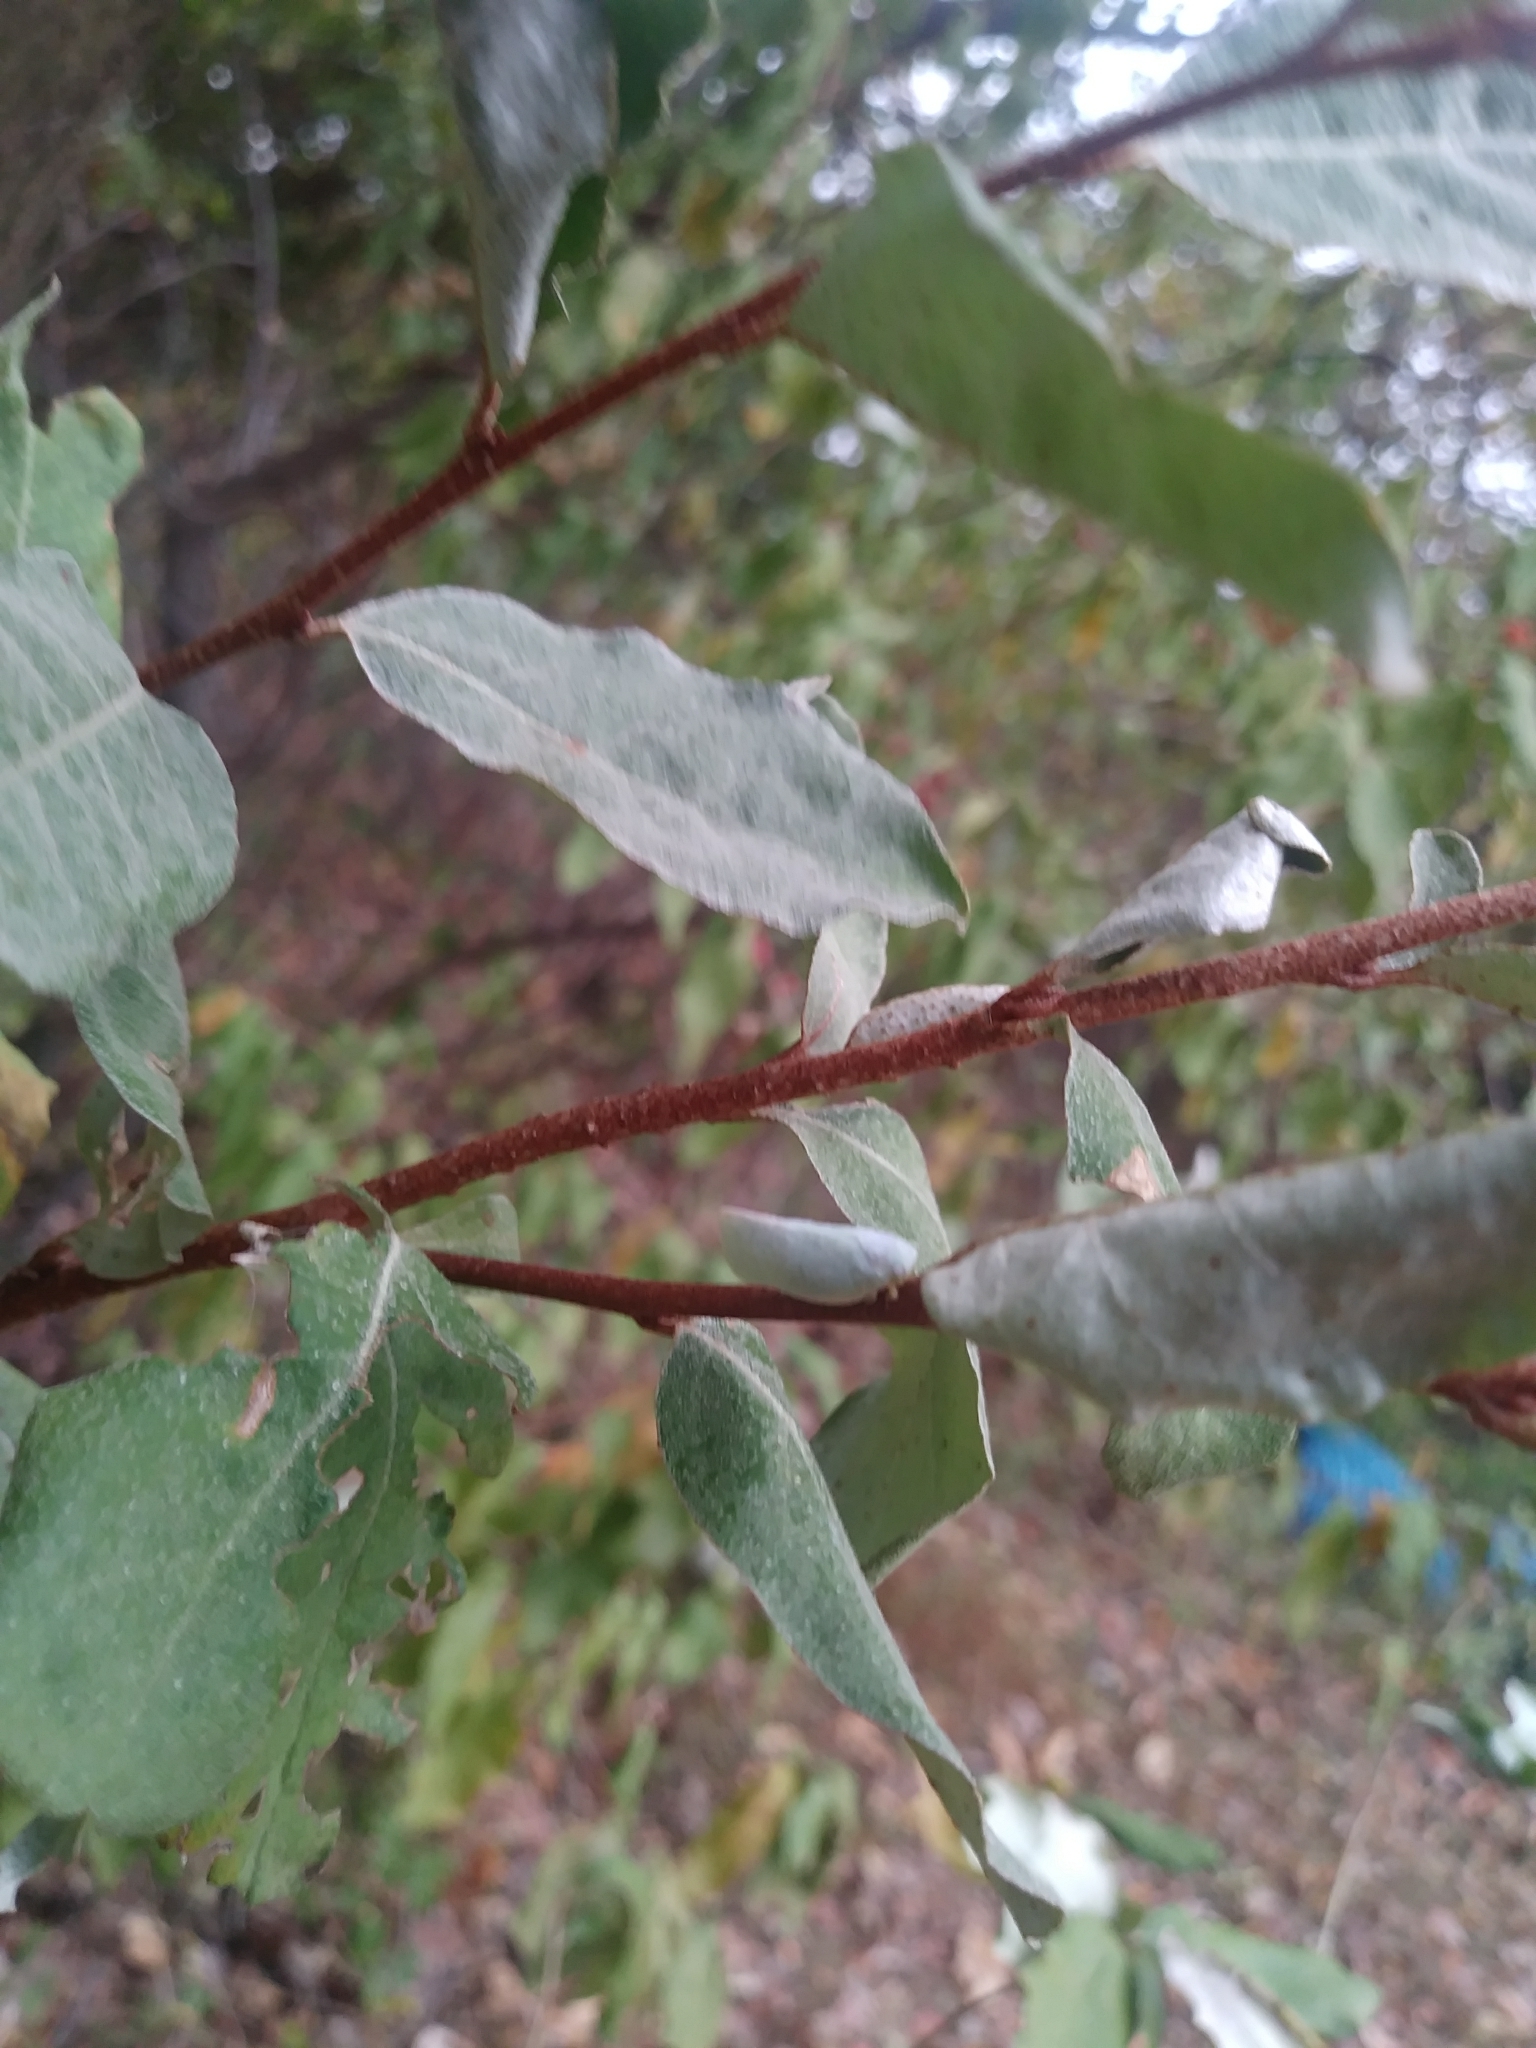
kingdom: Animalia
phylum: Arthropoda
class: Insecta
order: Hemiptera
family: Flatidae
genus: Flatormenis
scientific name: Flatormenis proxima
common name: Northern flatid planthopper
